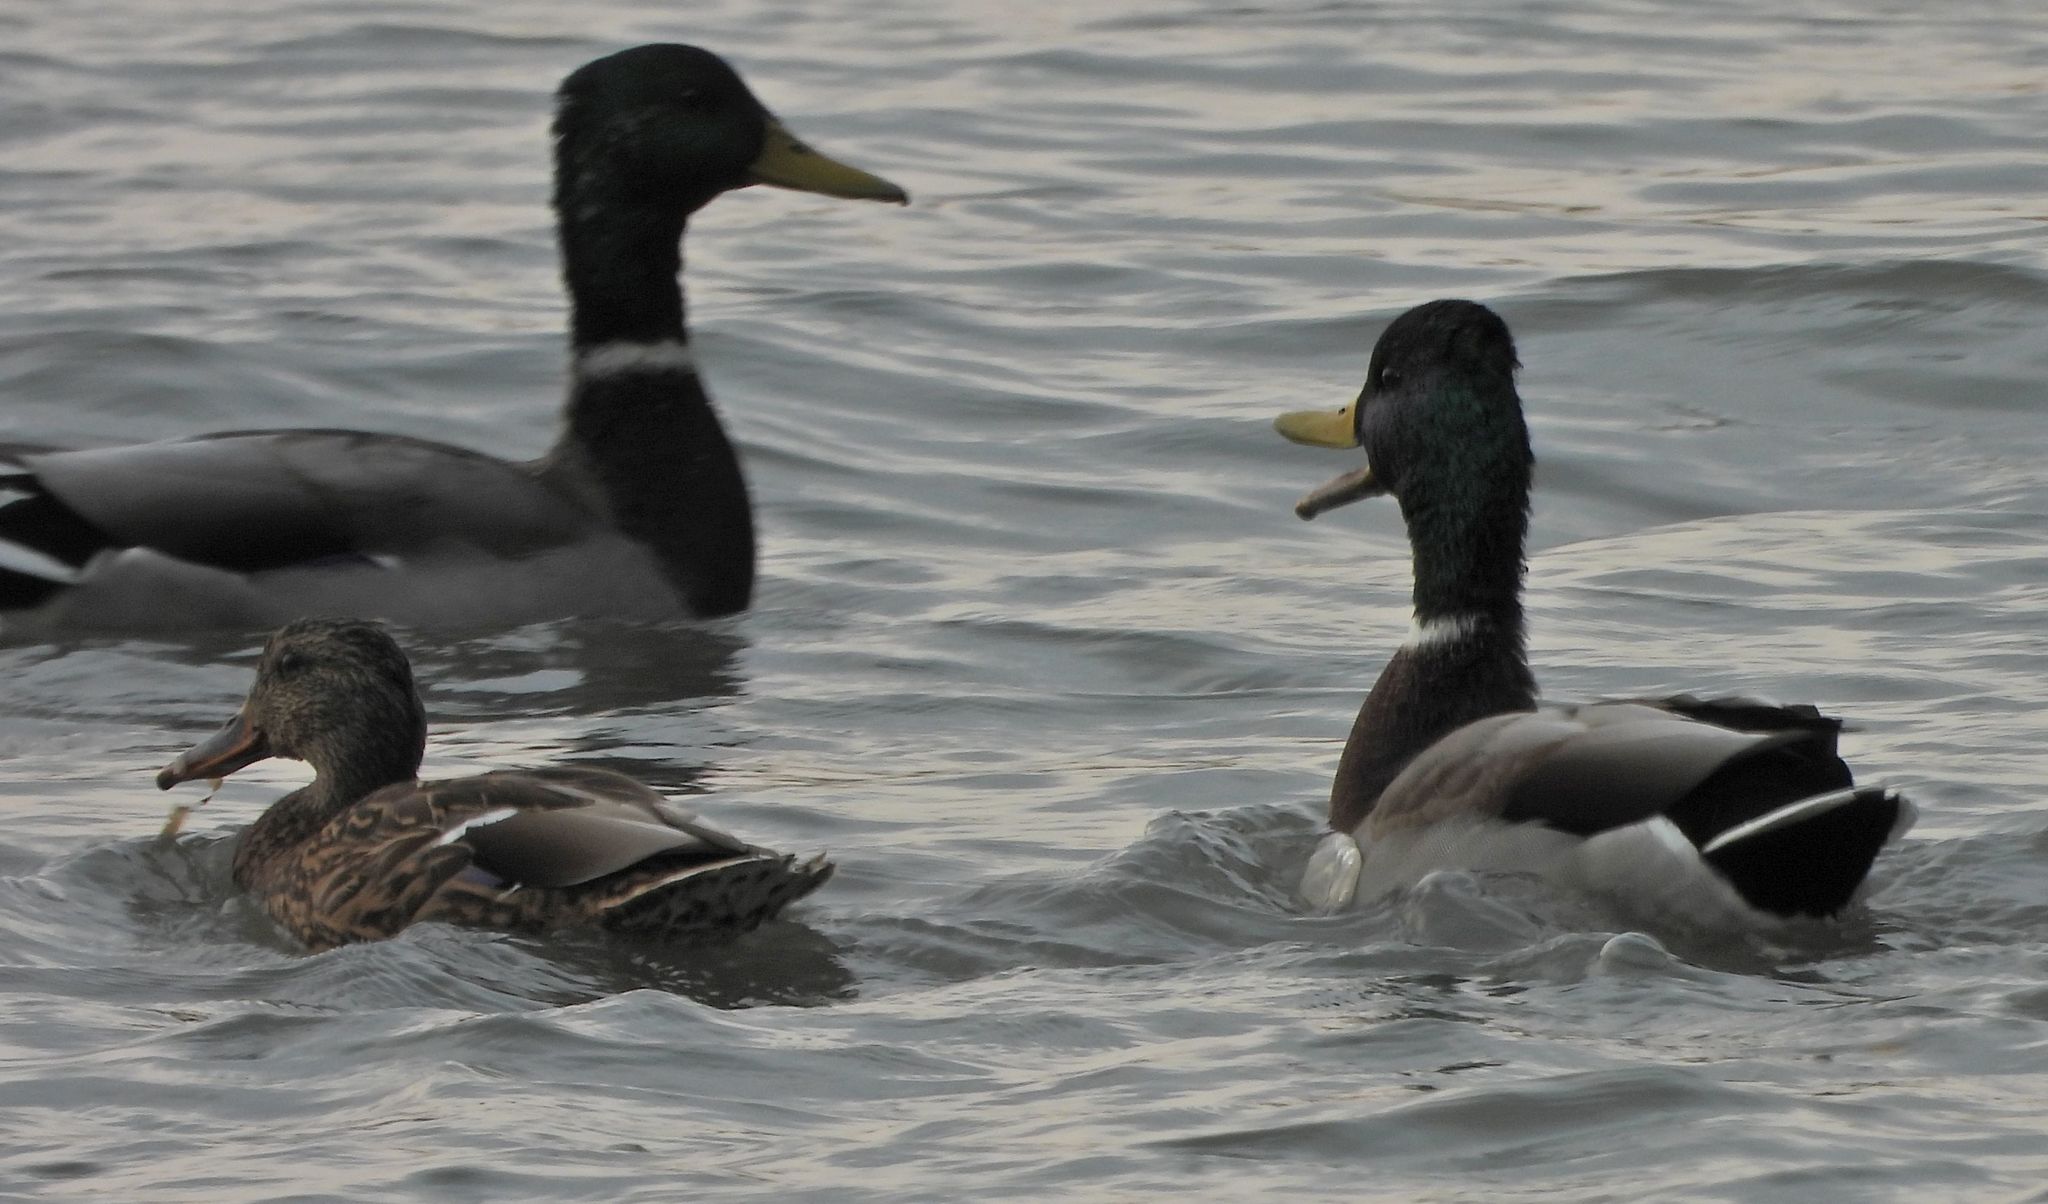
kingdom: Animalia
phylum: Chordata
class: Aves
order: Anseriformes
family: Anatidae
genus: Anas
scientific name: Anas platyrhynchos
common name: Mallard
